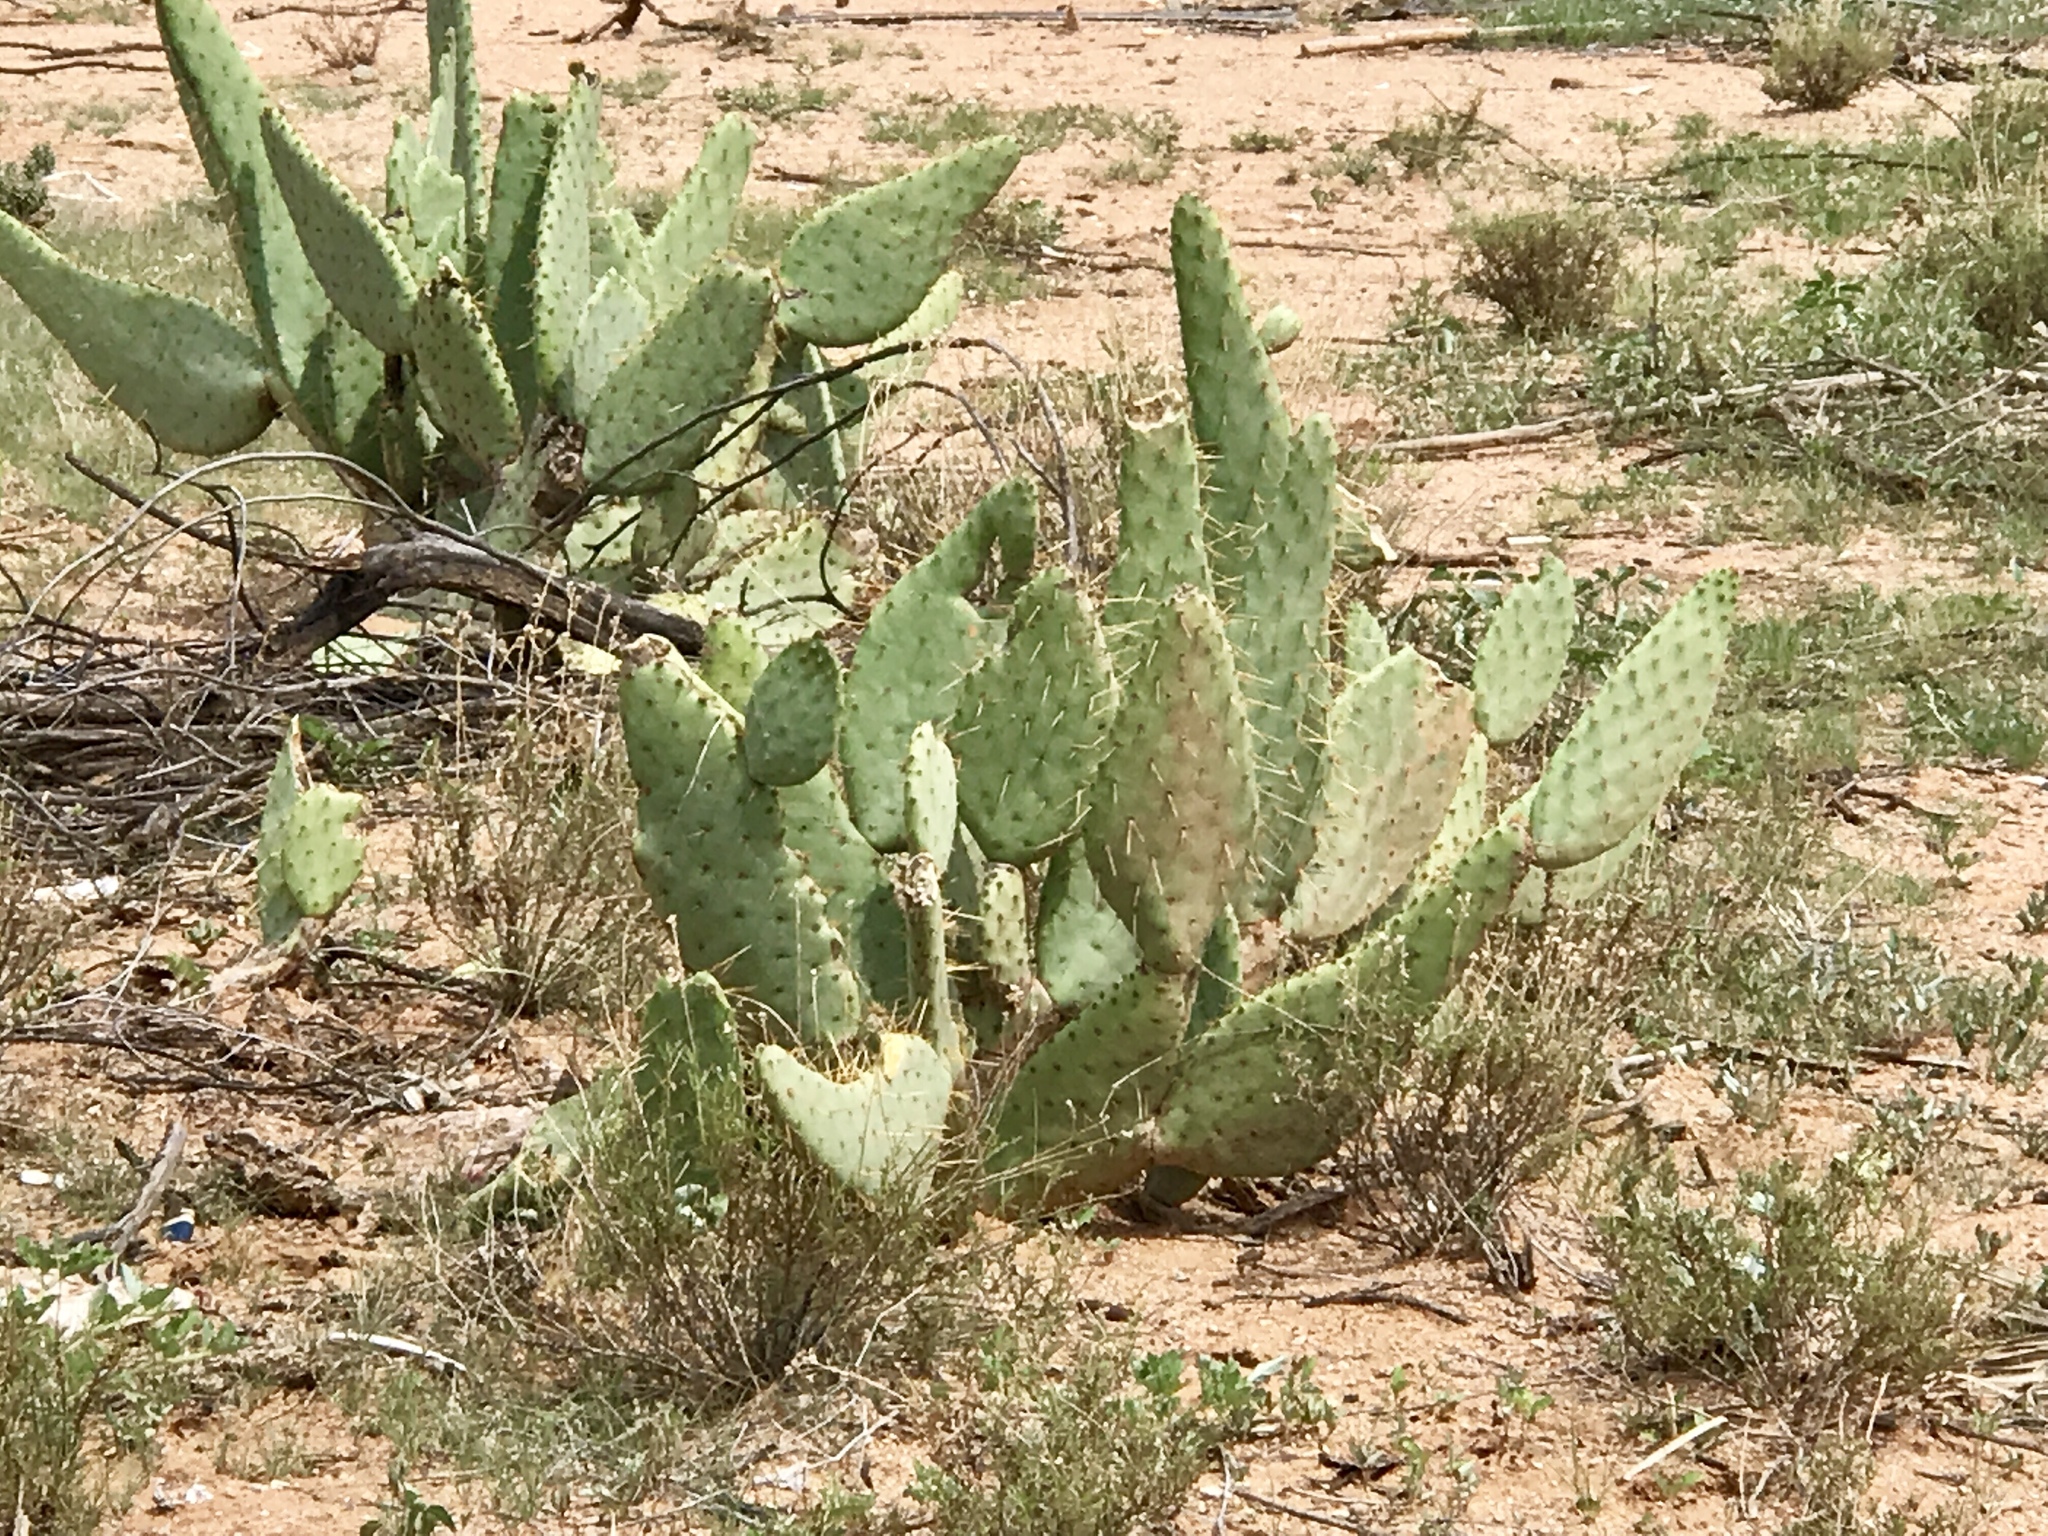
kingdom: Plantae
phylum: Tracheophyta
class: Magnoliopsida
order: Caryophyllales
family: Cactaceae
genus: Opuntia
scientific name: Opuntia engelmannii
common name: Cactus-apple
